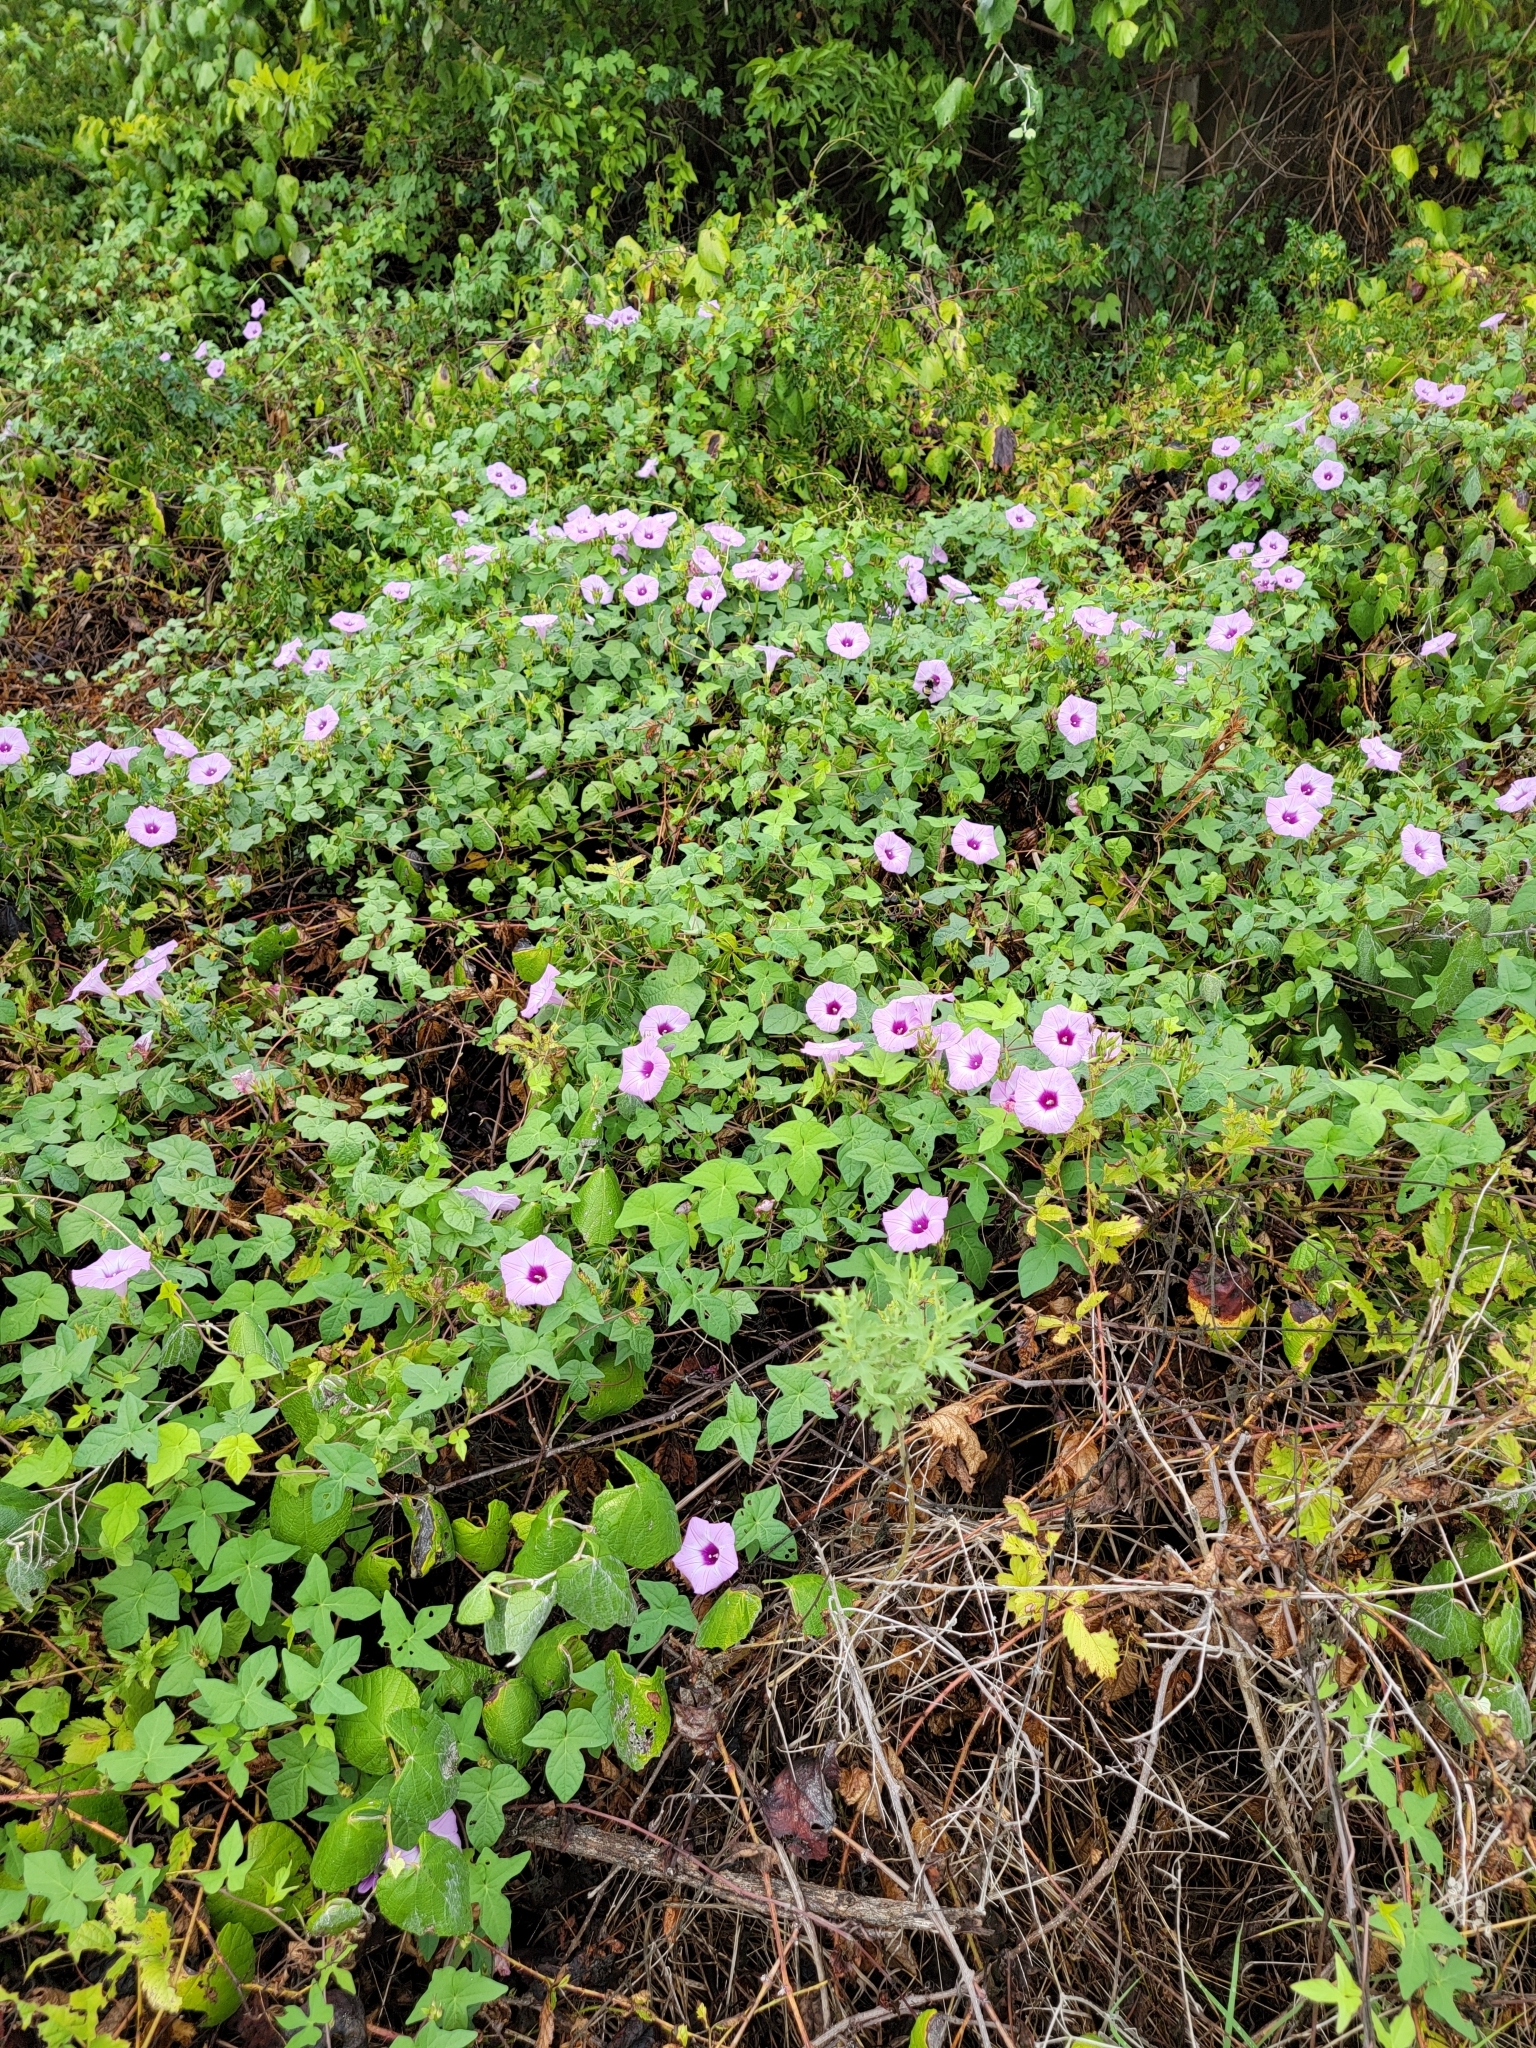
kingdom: Plantae
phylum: Tracheophyta
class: Magnoliopsida
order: Solanales
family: Convolvulaceae
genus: Ipomoea
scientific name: Ipomoea cordatotriloba
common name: Cotton morning glory
